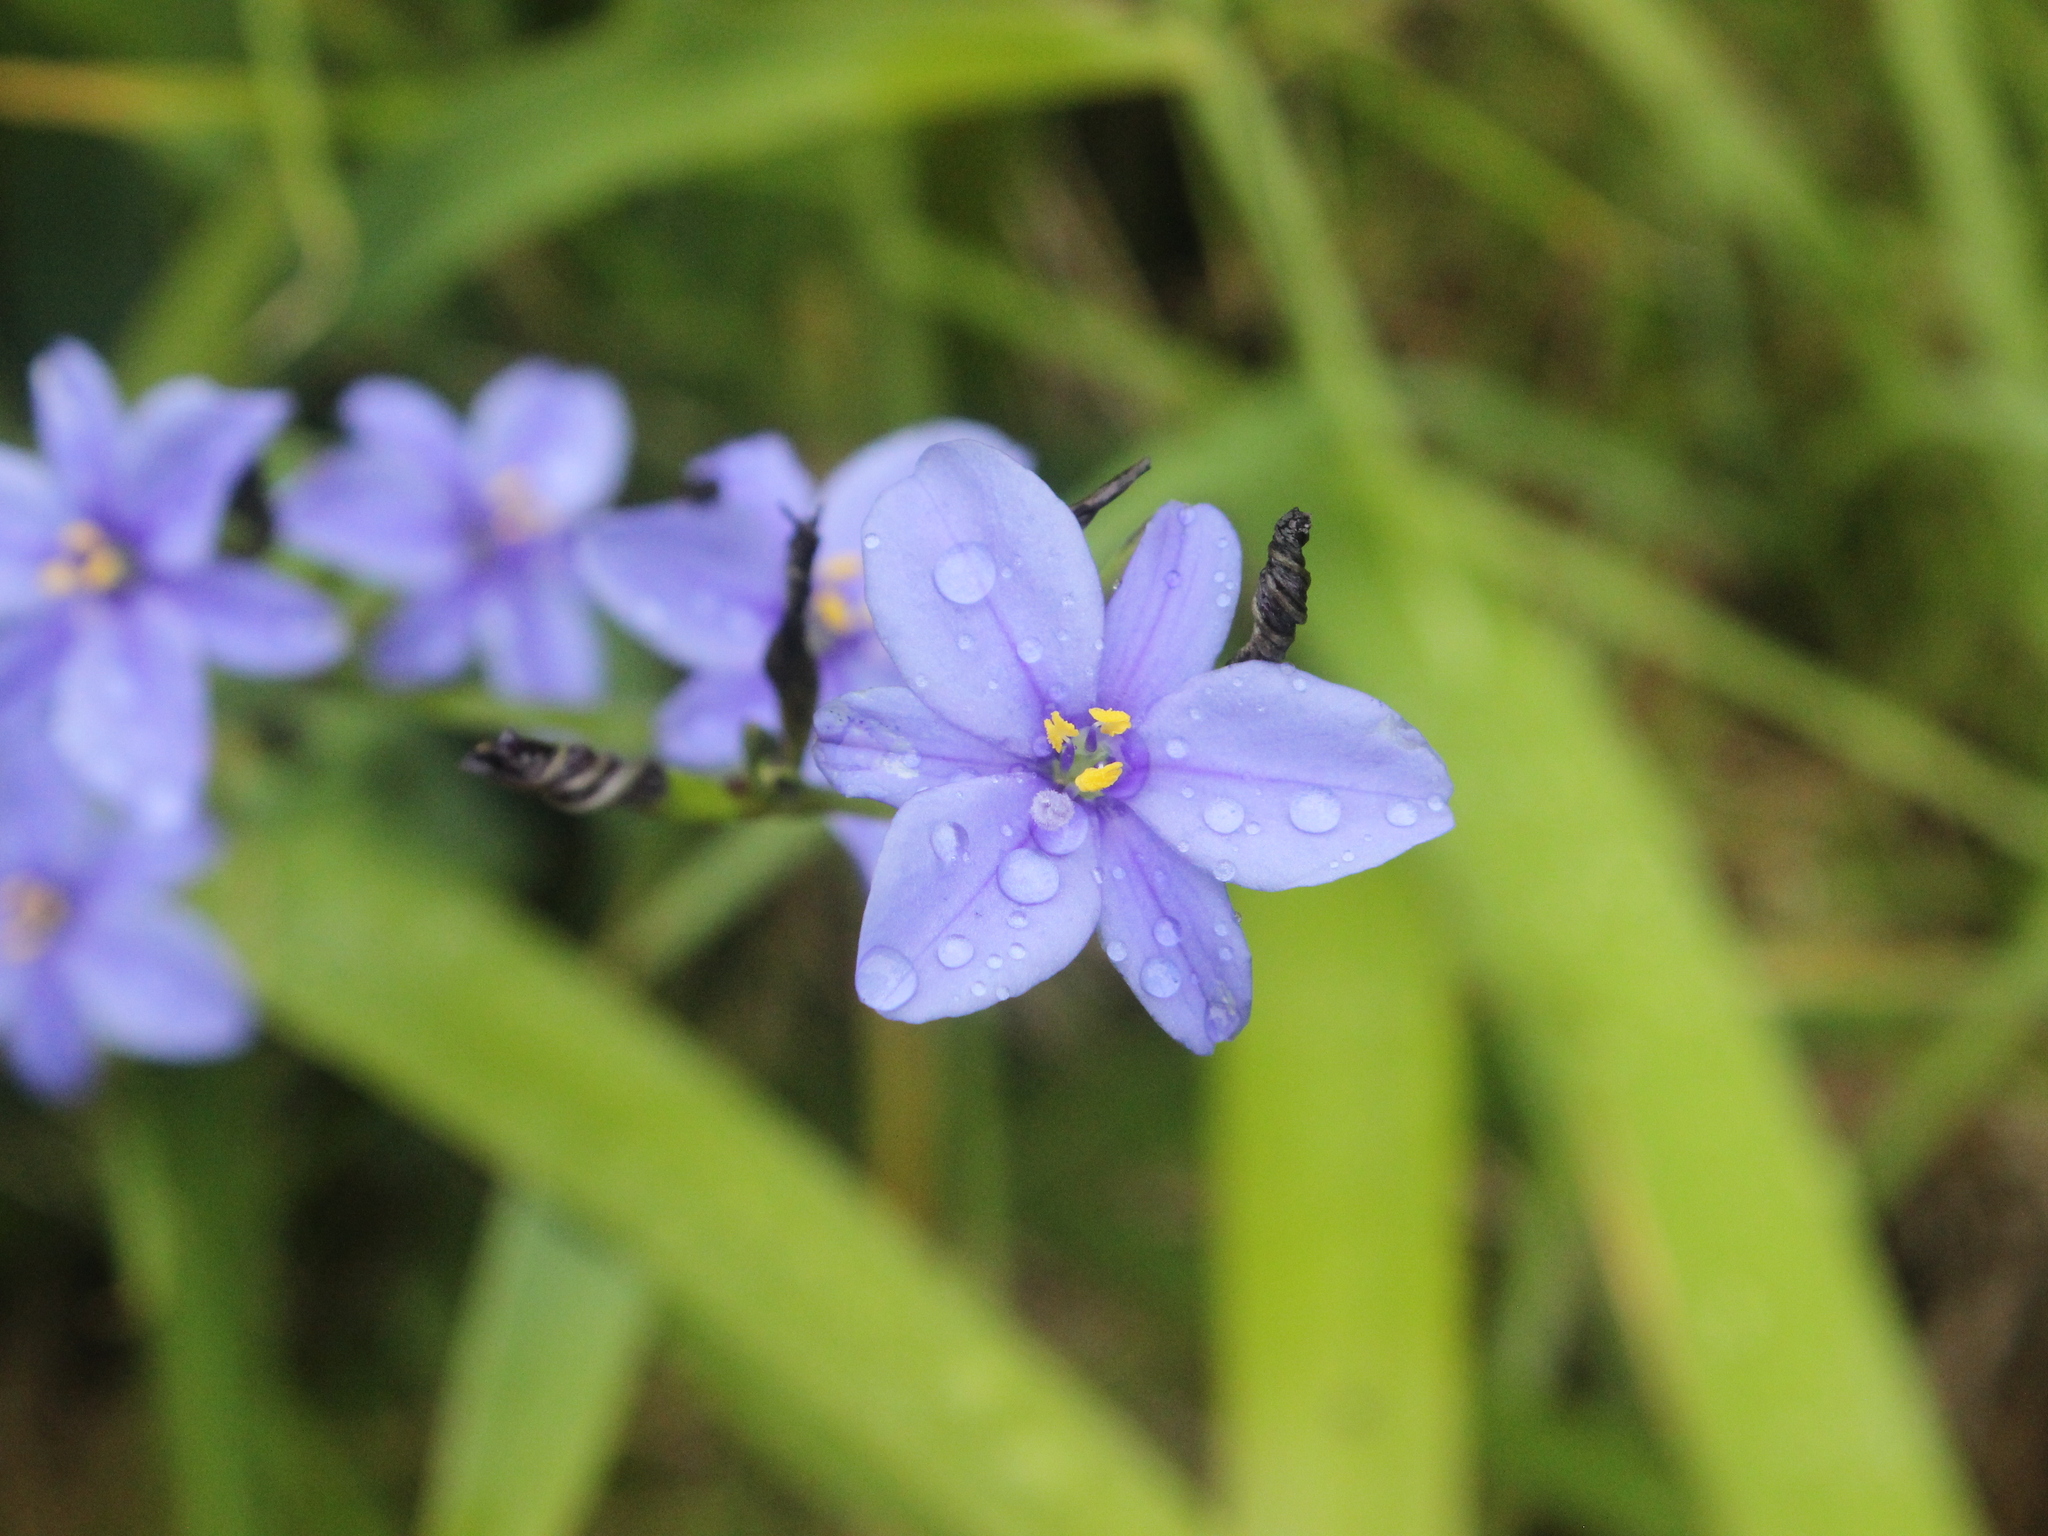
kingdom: Plantae
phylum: Tracheophyta
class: Liliopsida
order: Asparagales
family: Iridaceae
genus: Aristea
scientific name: Aristea ecklonii
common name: Blue corn-lily
